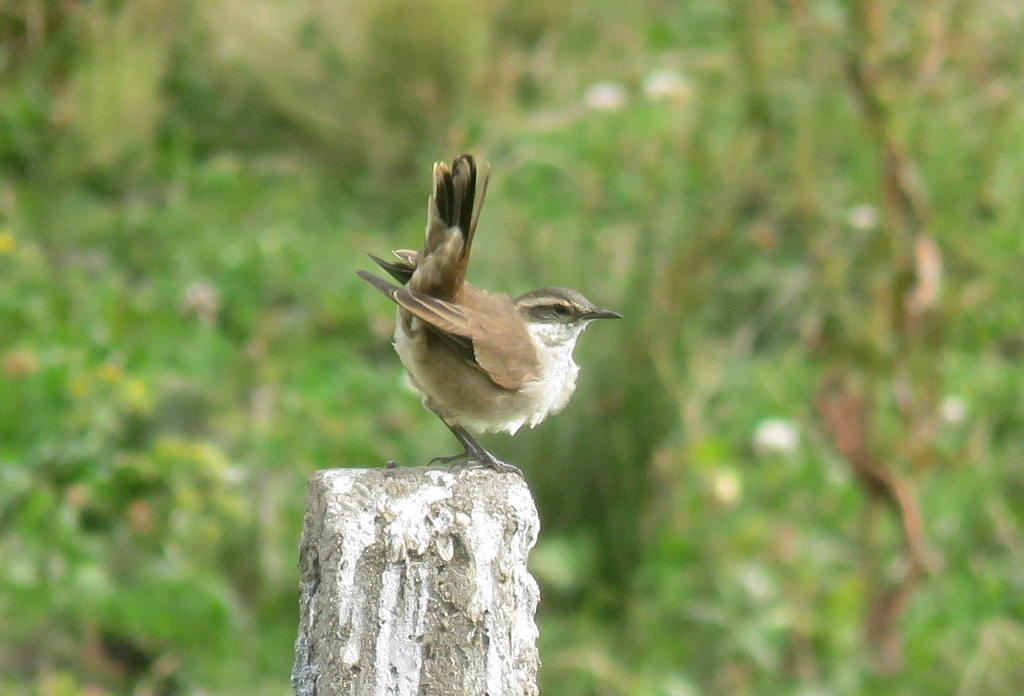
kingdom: Animalia
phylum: Chordata
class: Aves
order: Passeriformes
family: Furnariidae
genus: Cinclodes
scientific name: Cinclodes fuscus
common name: Buff-winged cinclodes
